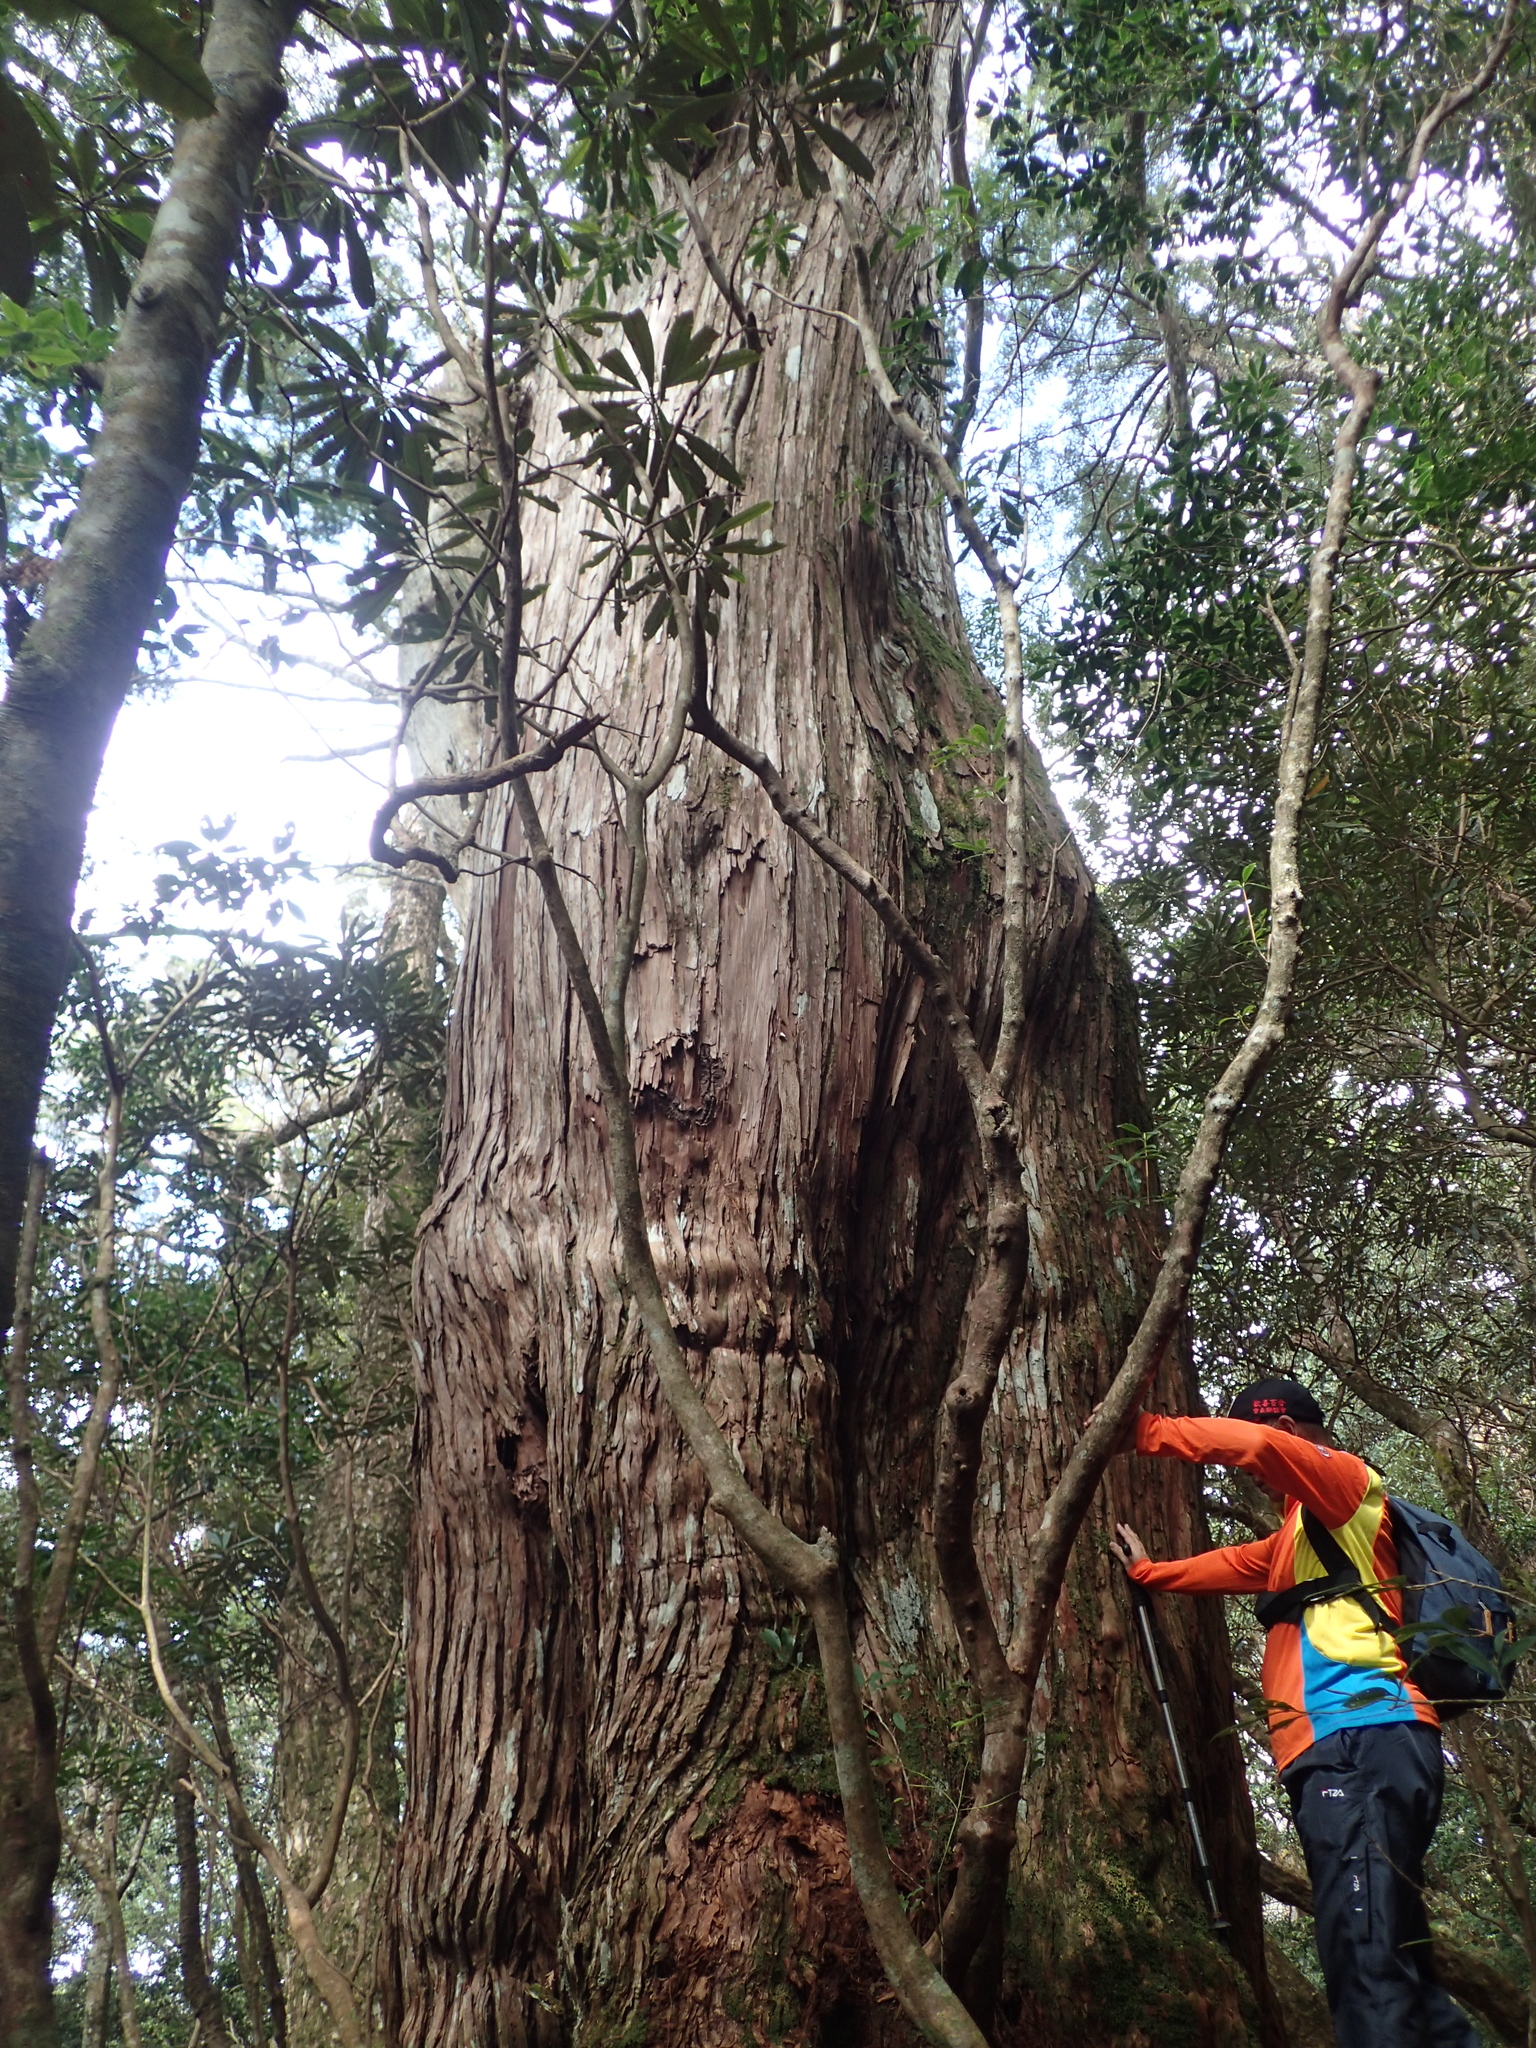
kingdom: Plantae
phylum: Tracheophyta
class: Pinopsida
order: Pinales
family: Cupressaceae
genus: Chamaecyparis
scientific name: Chamaecyparis obtusa
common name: Hinoki false cypress
